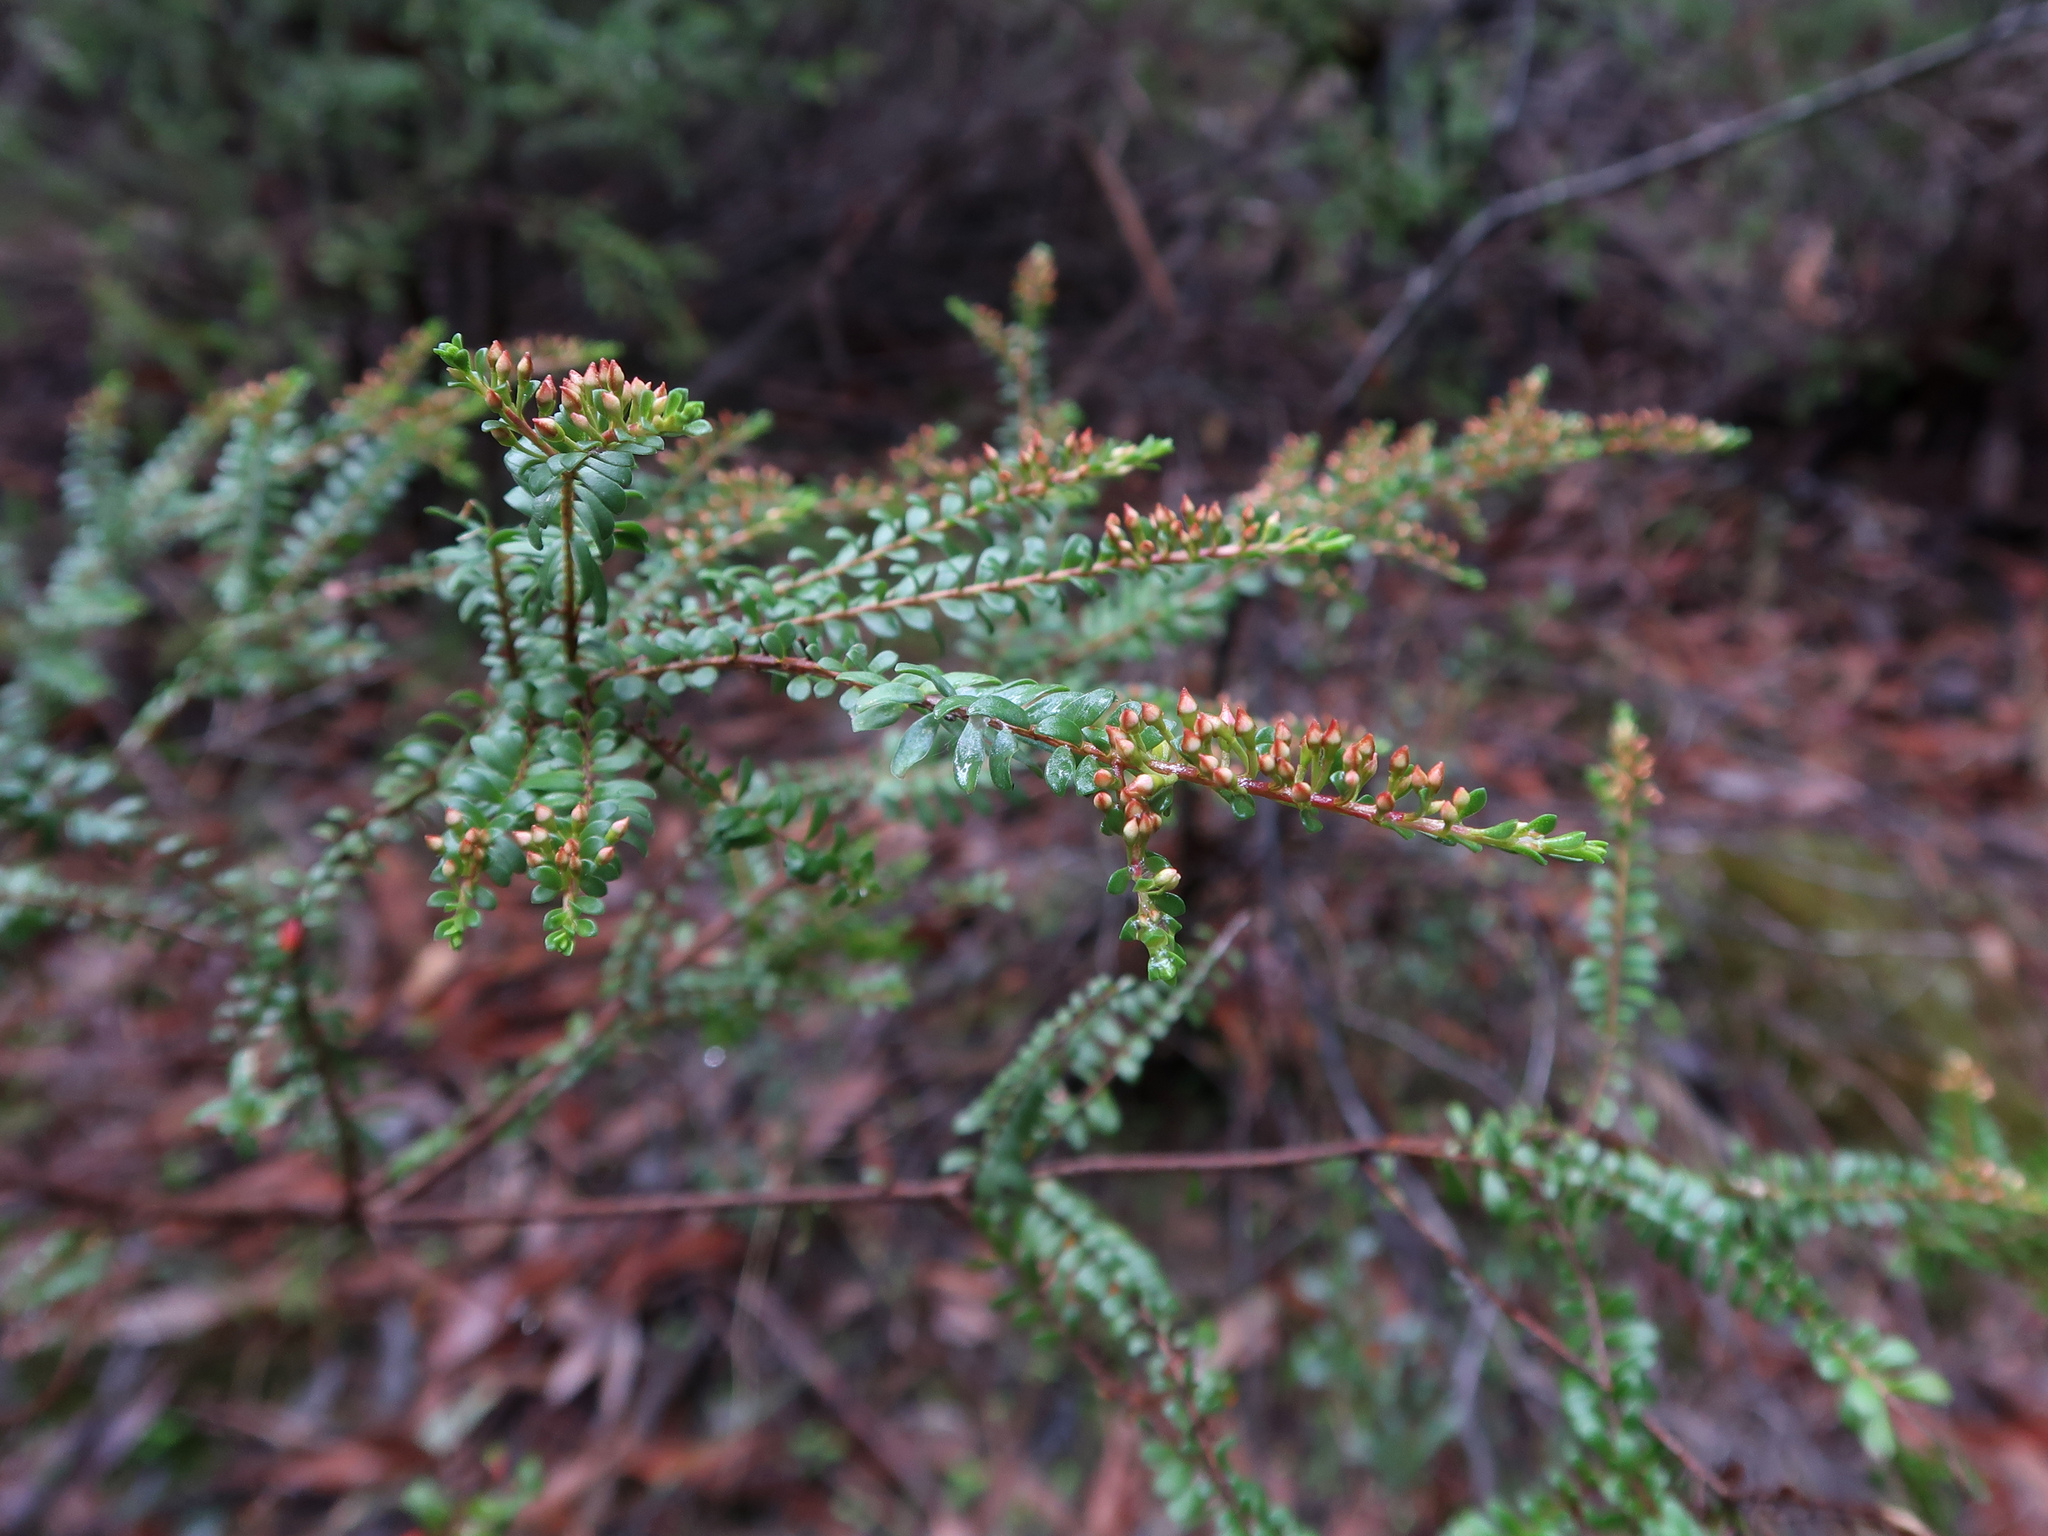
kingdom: Plantae
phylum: Tracheophyta
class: Magnoliopsida
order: Myrtales
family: Myrtaceae
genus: Thryptomene
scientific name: Thryptomene calycina
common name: Grampians thryptomene
